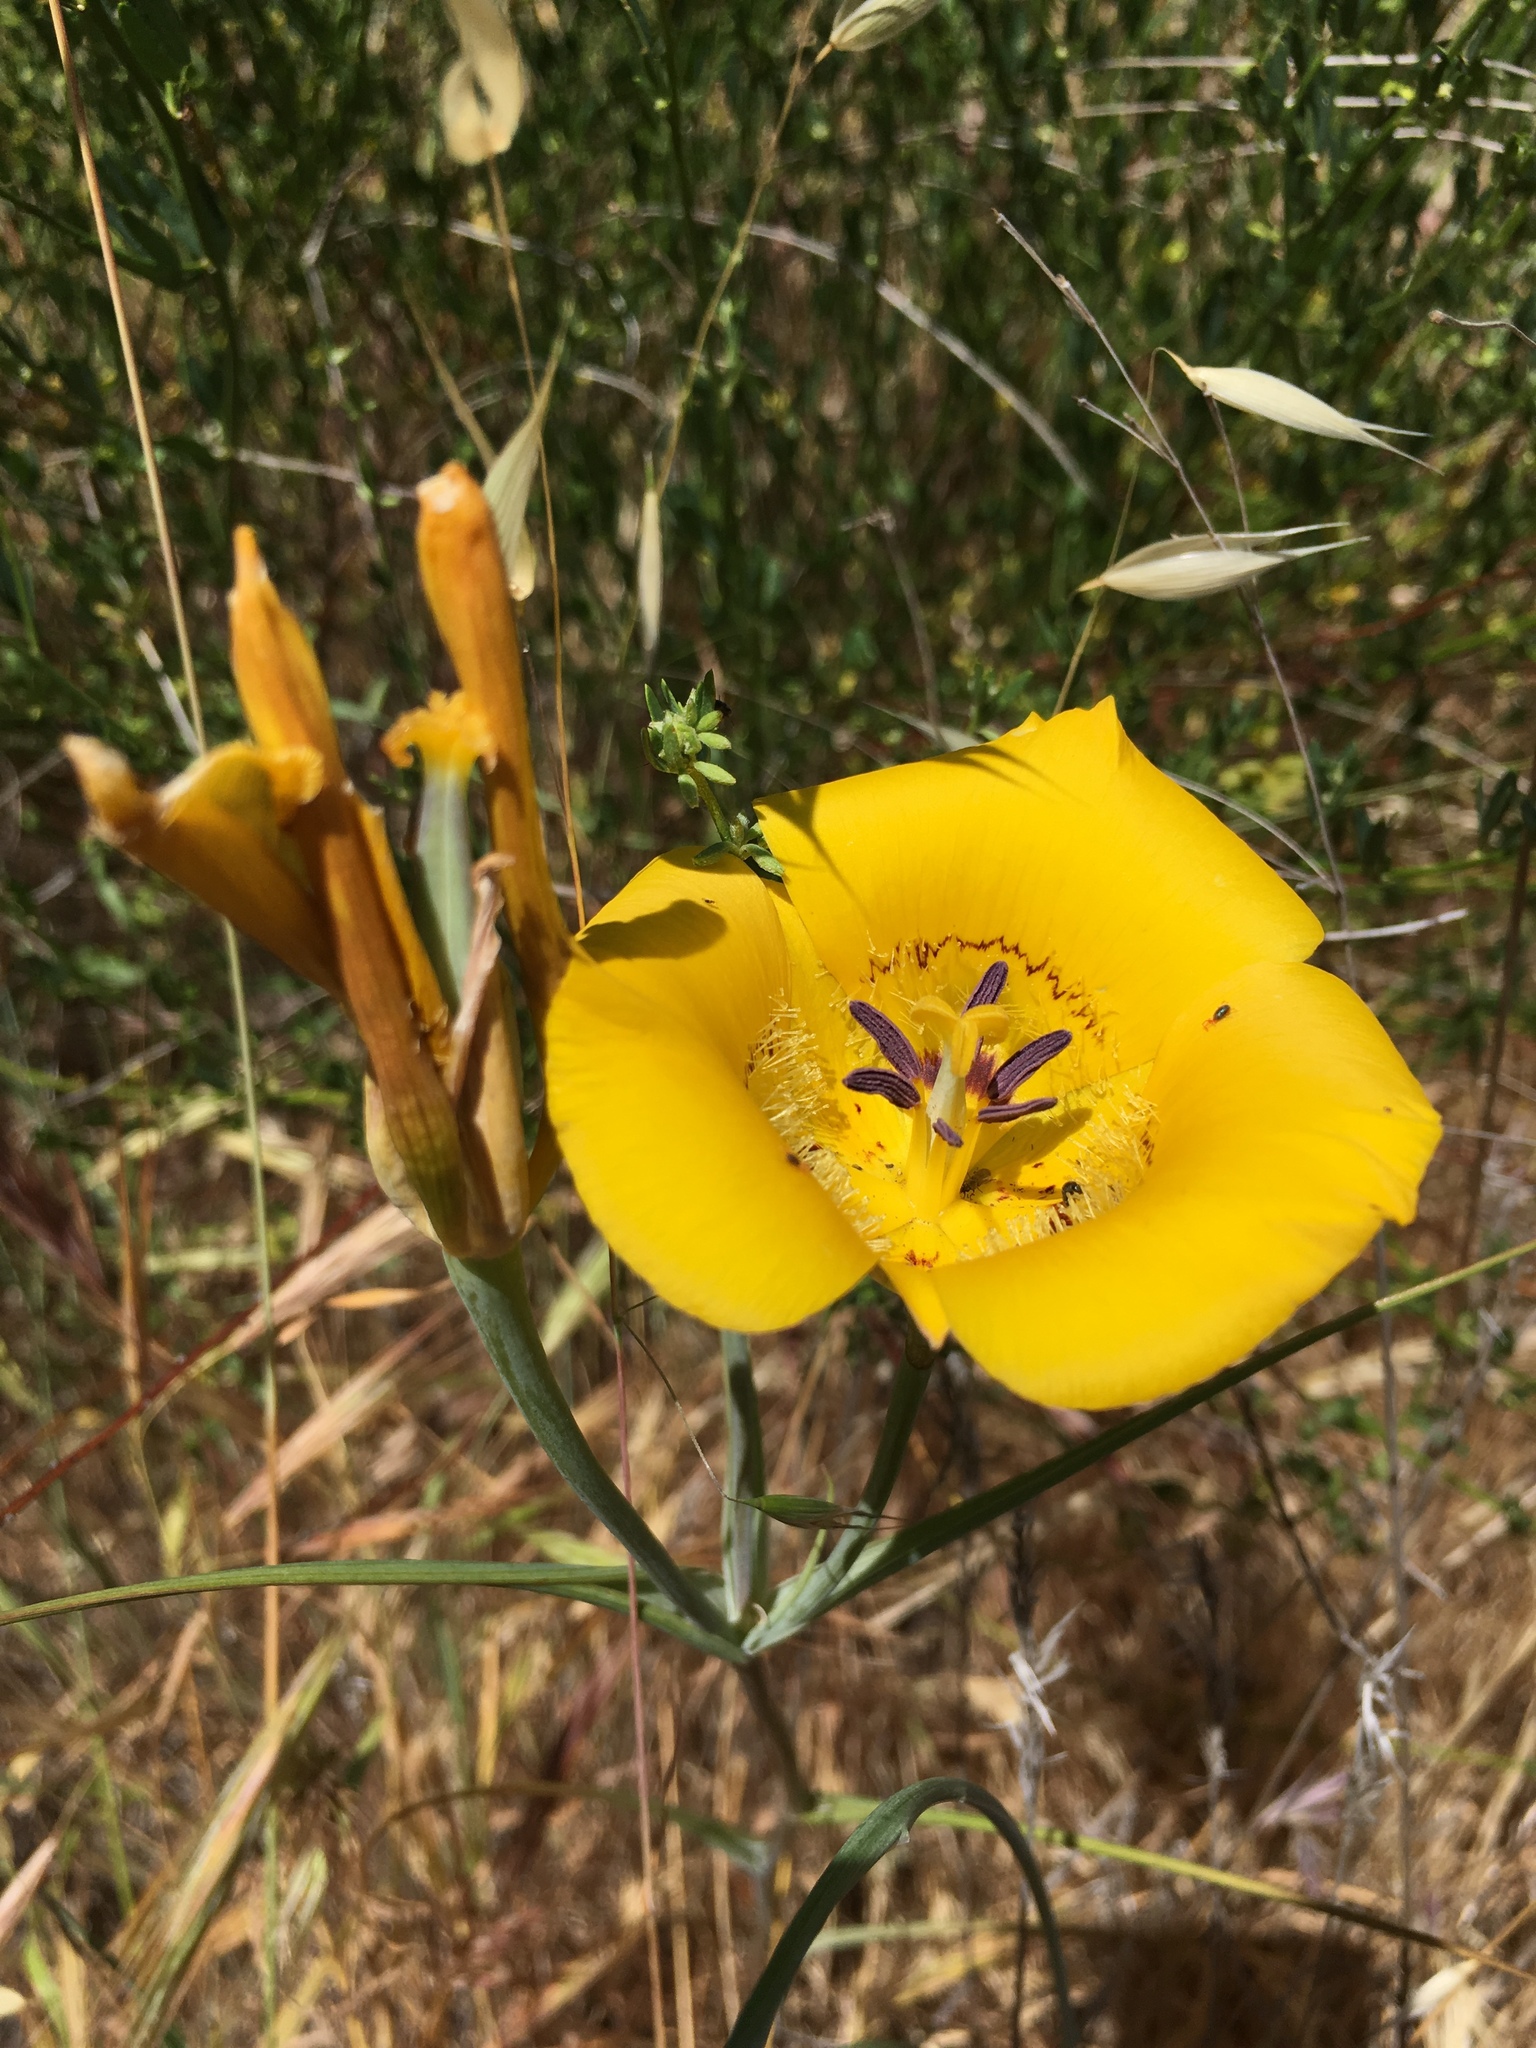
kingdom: Plantae
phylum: Tracheophyta
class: Liliopsida
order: Liliales
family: Liliaceae
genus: Calochortus
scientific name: Calochortus clavatus
